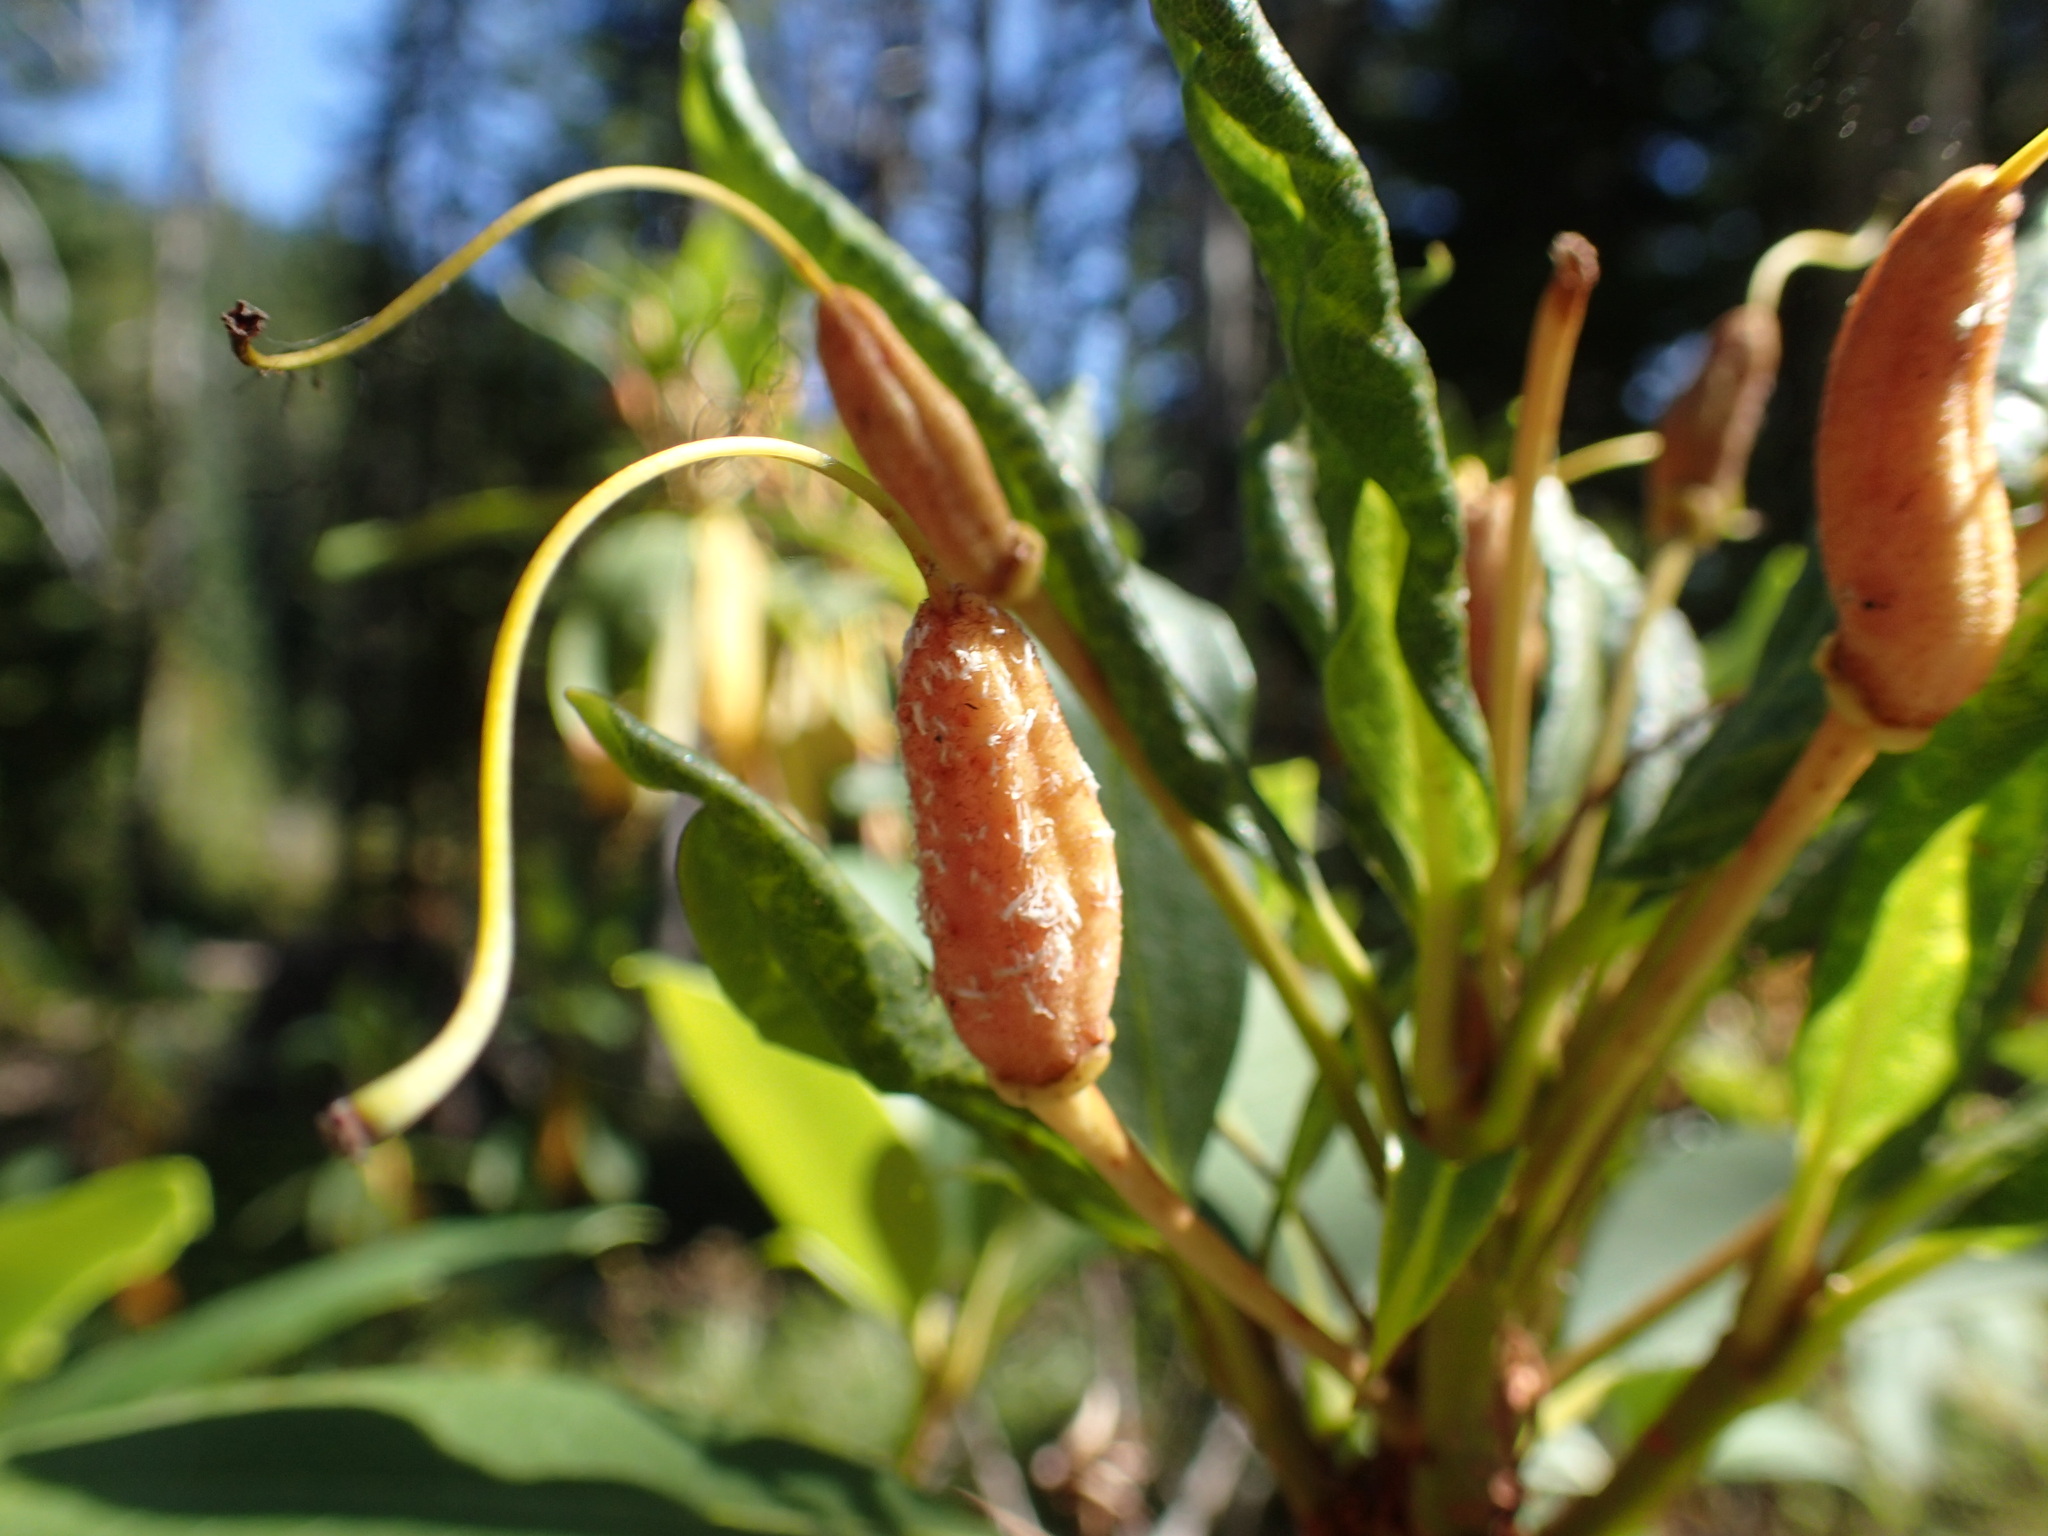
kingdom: Plantae
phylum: Tracheophyta
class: Magnoliopsida
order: Ericales
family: Ericaceae
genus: Rhododendron
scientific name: Rhododendron macrophyllum
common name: California rose bay
